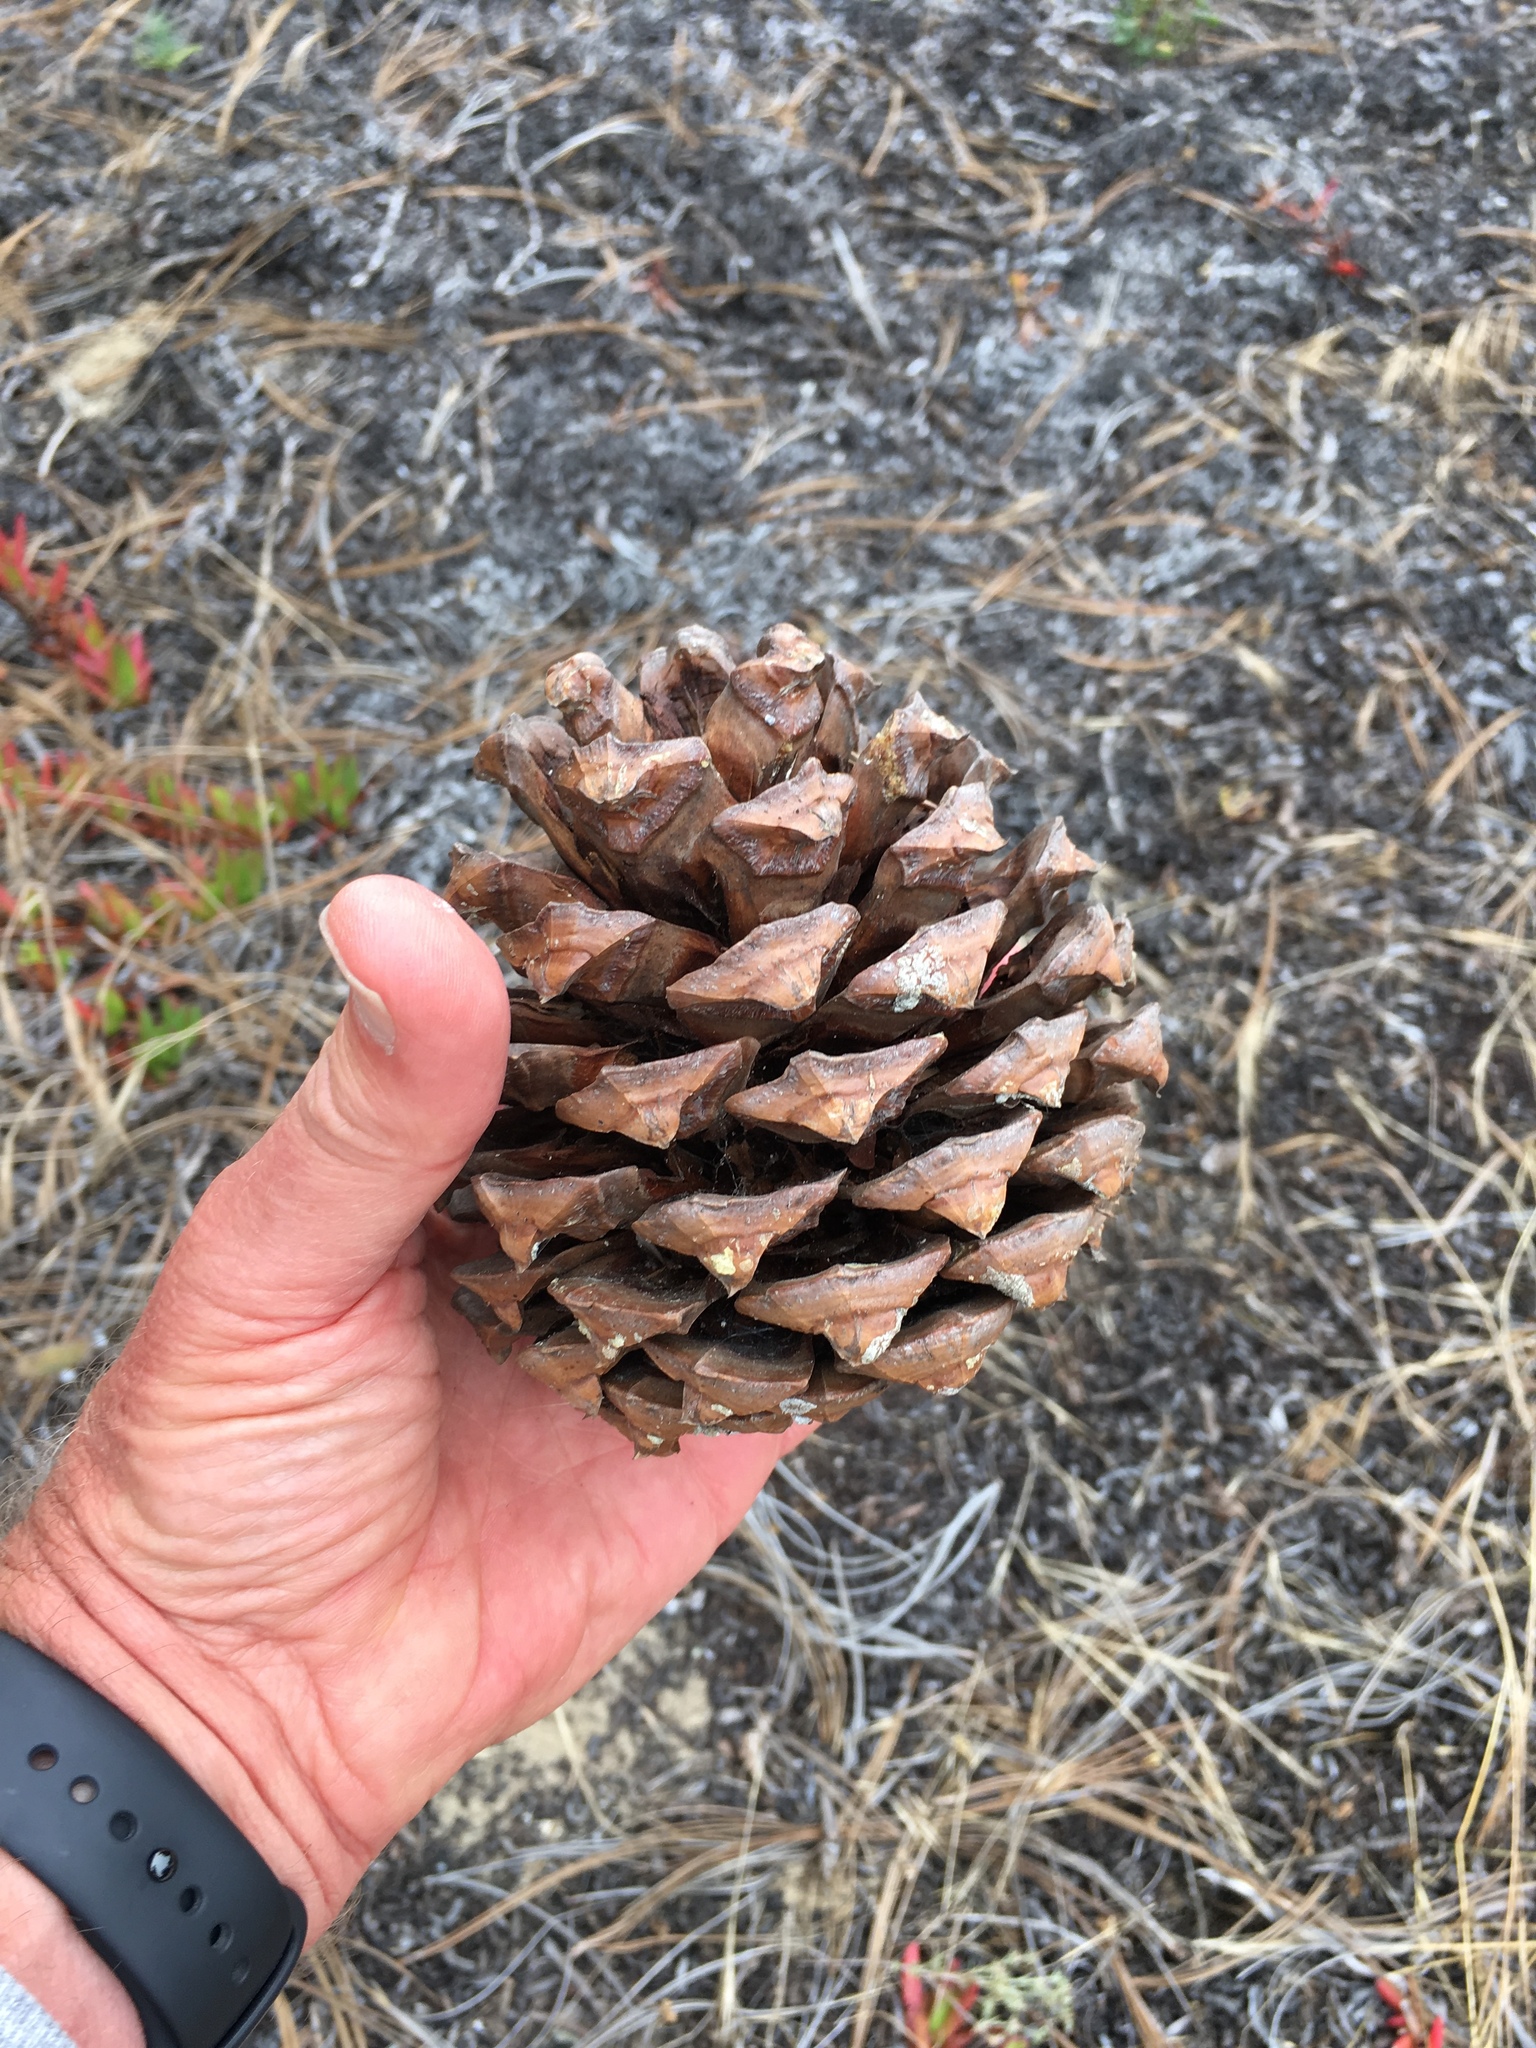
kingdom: Plantae
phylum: Tracheophyta
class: Pinopsida
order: Pinales
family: Pinaceae
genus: Pinus
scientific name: Pinus torreyana
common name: Torrey pine
